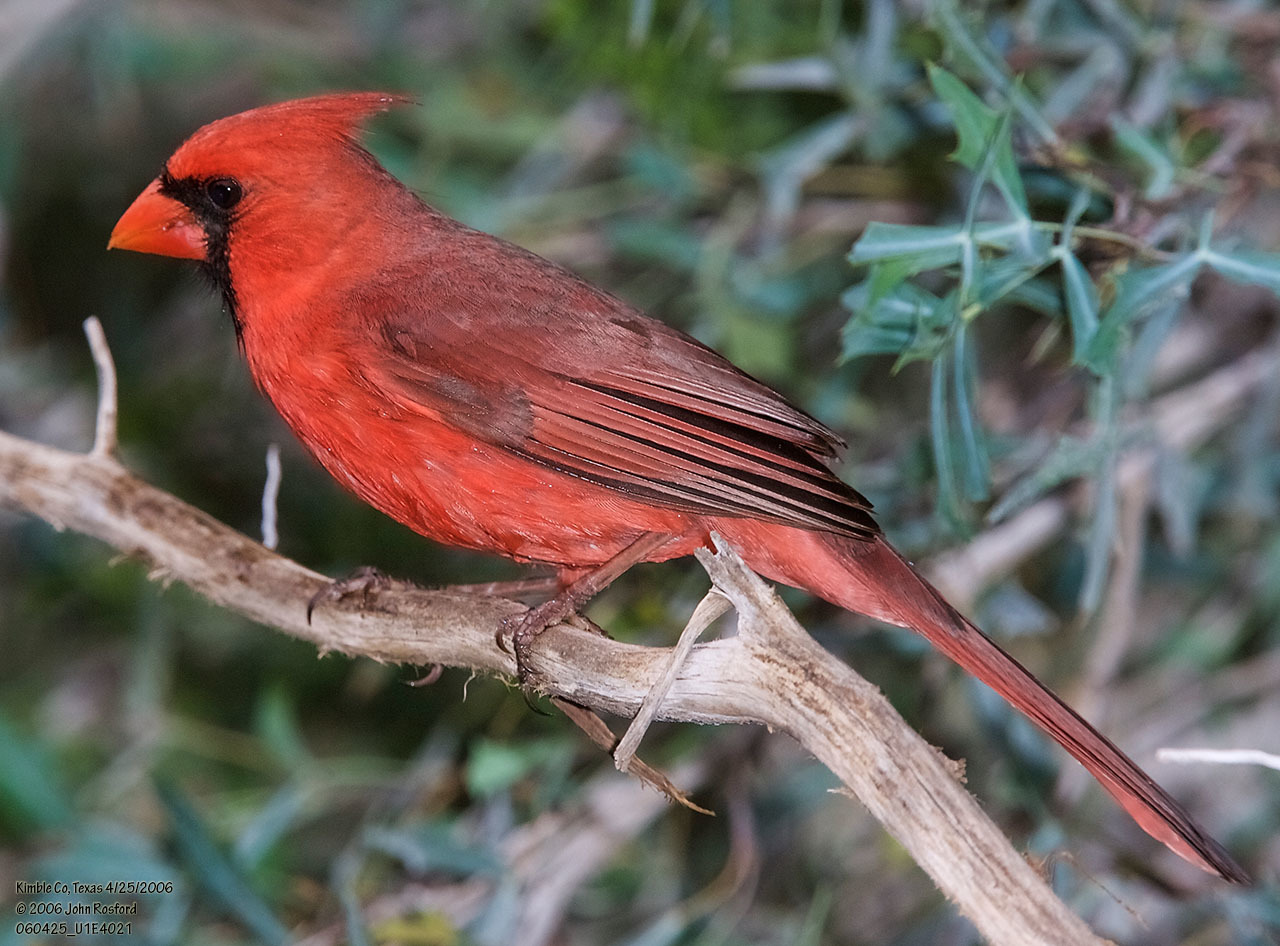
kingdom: Animalia
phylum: Chordata
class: Aves
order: Passeriformes
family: Cardinalidae
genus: Cardinalis
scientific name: Cardinalis cardinalis
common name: Northern cardinal
